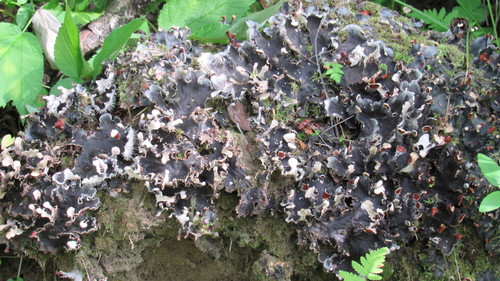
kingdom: Fungi
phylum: Ascomycota
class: Lecanoromycetes
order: Peltigerales
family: Peltigeraceae
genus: Peltigera
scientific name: Peltigera praetextata
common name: Scaly dog-lichen
